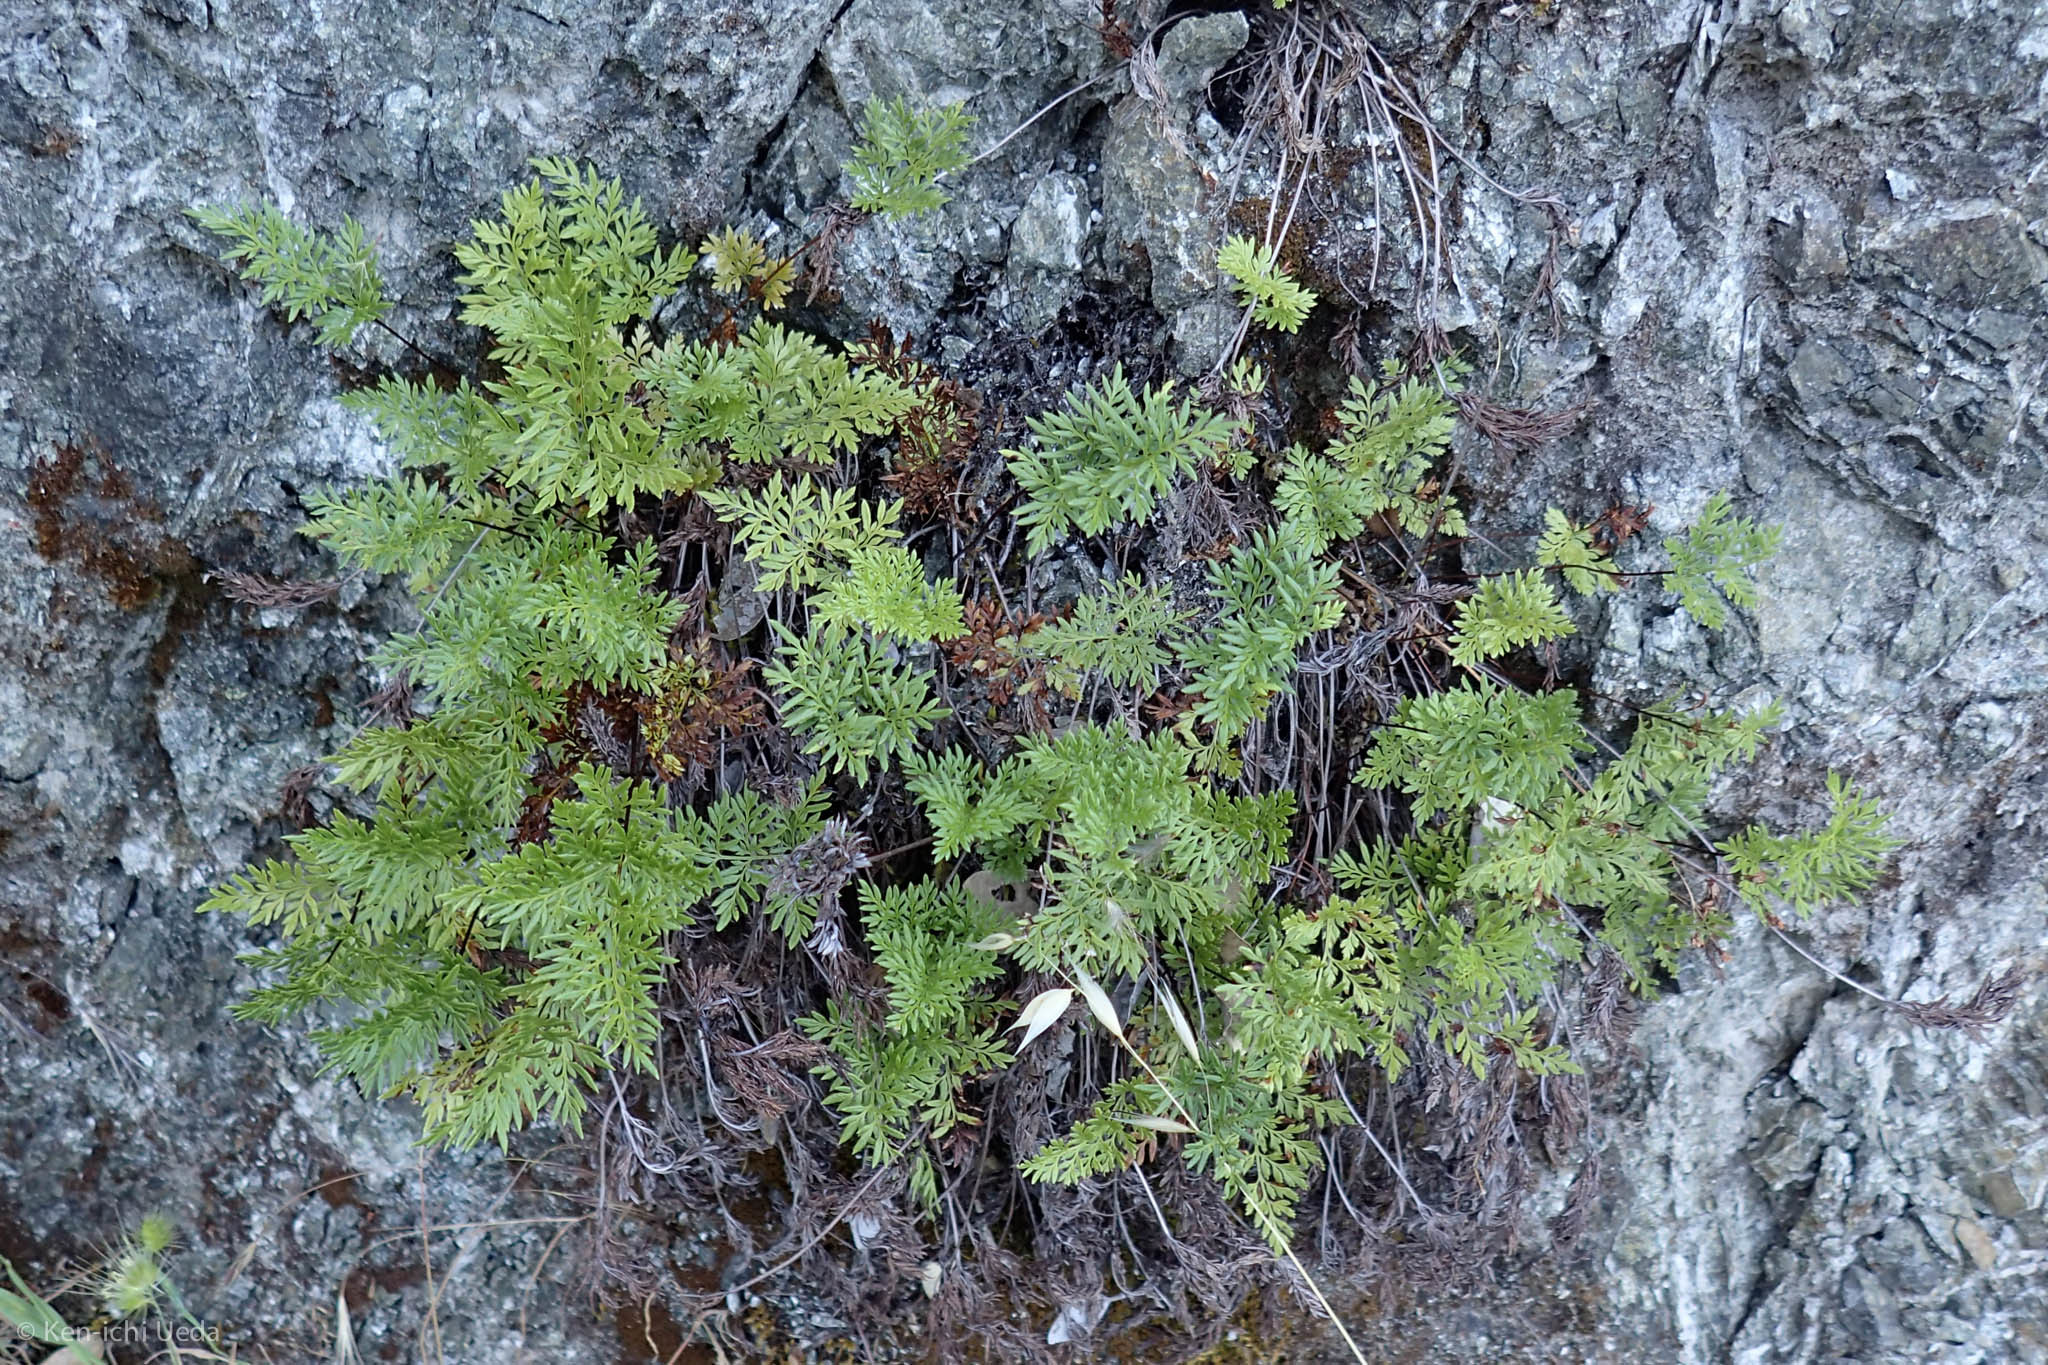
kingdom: Plantae
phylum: Tracheophyta
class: Polypodiopsida
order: Polypodiales
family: Pteridaceae
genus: Aspidotis
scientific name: Aspidotis densa
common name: Indian's dream
